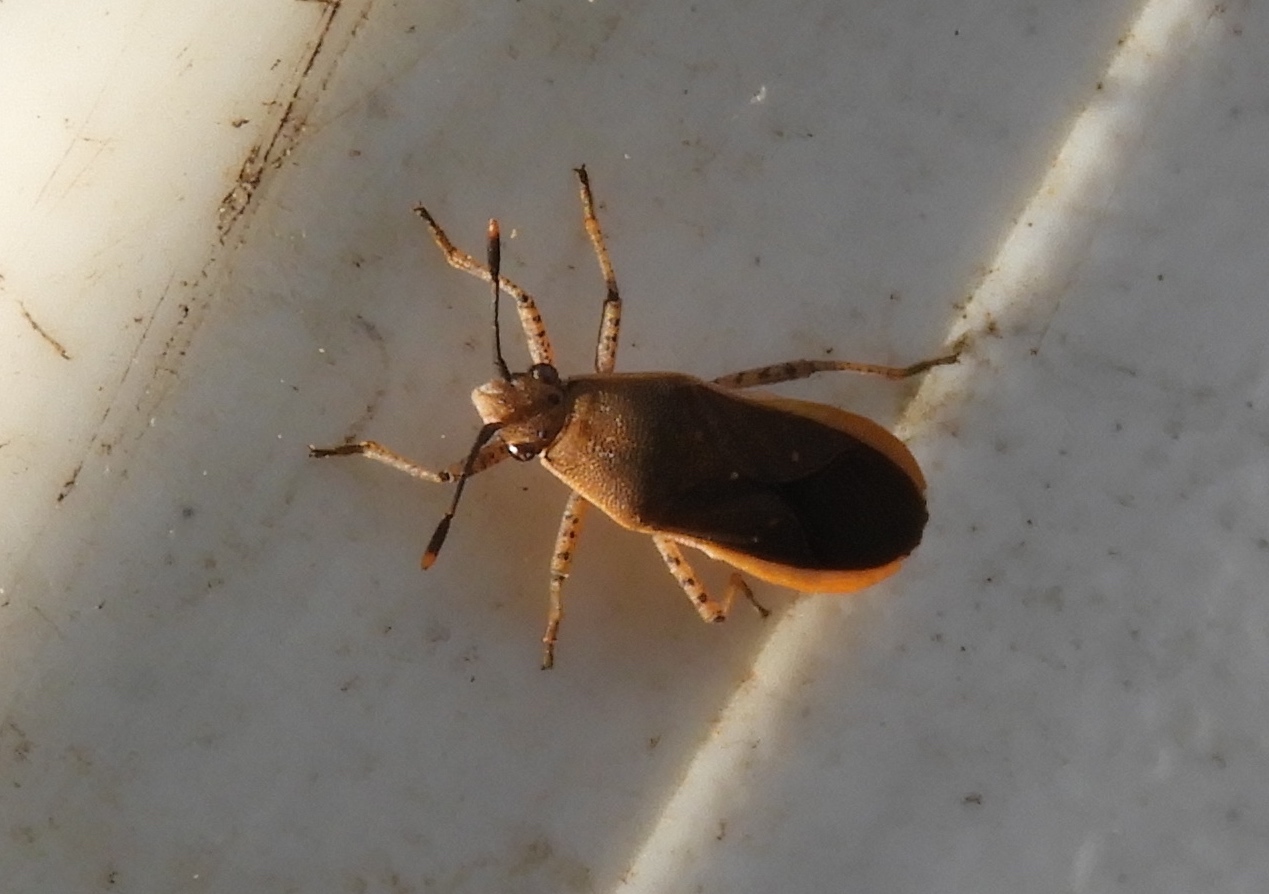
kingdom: Animalia
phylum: Arthropoda
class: Insecta
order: Hemiptera
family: Coreidae
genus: Catorhintha
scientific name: Catorhintha selector
